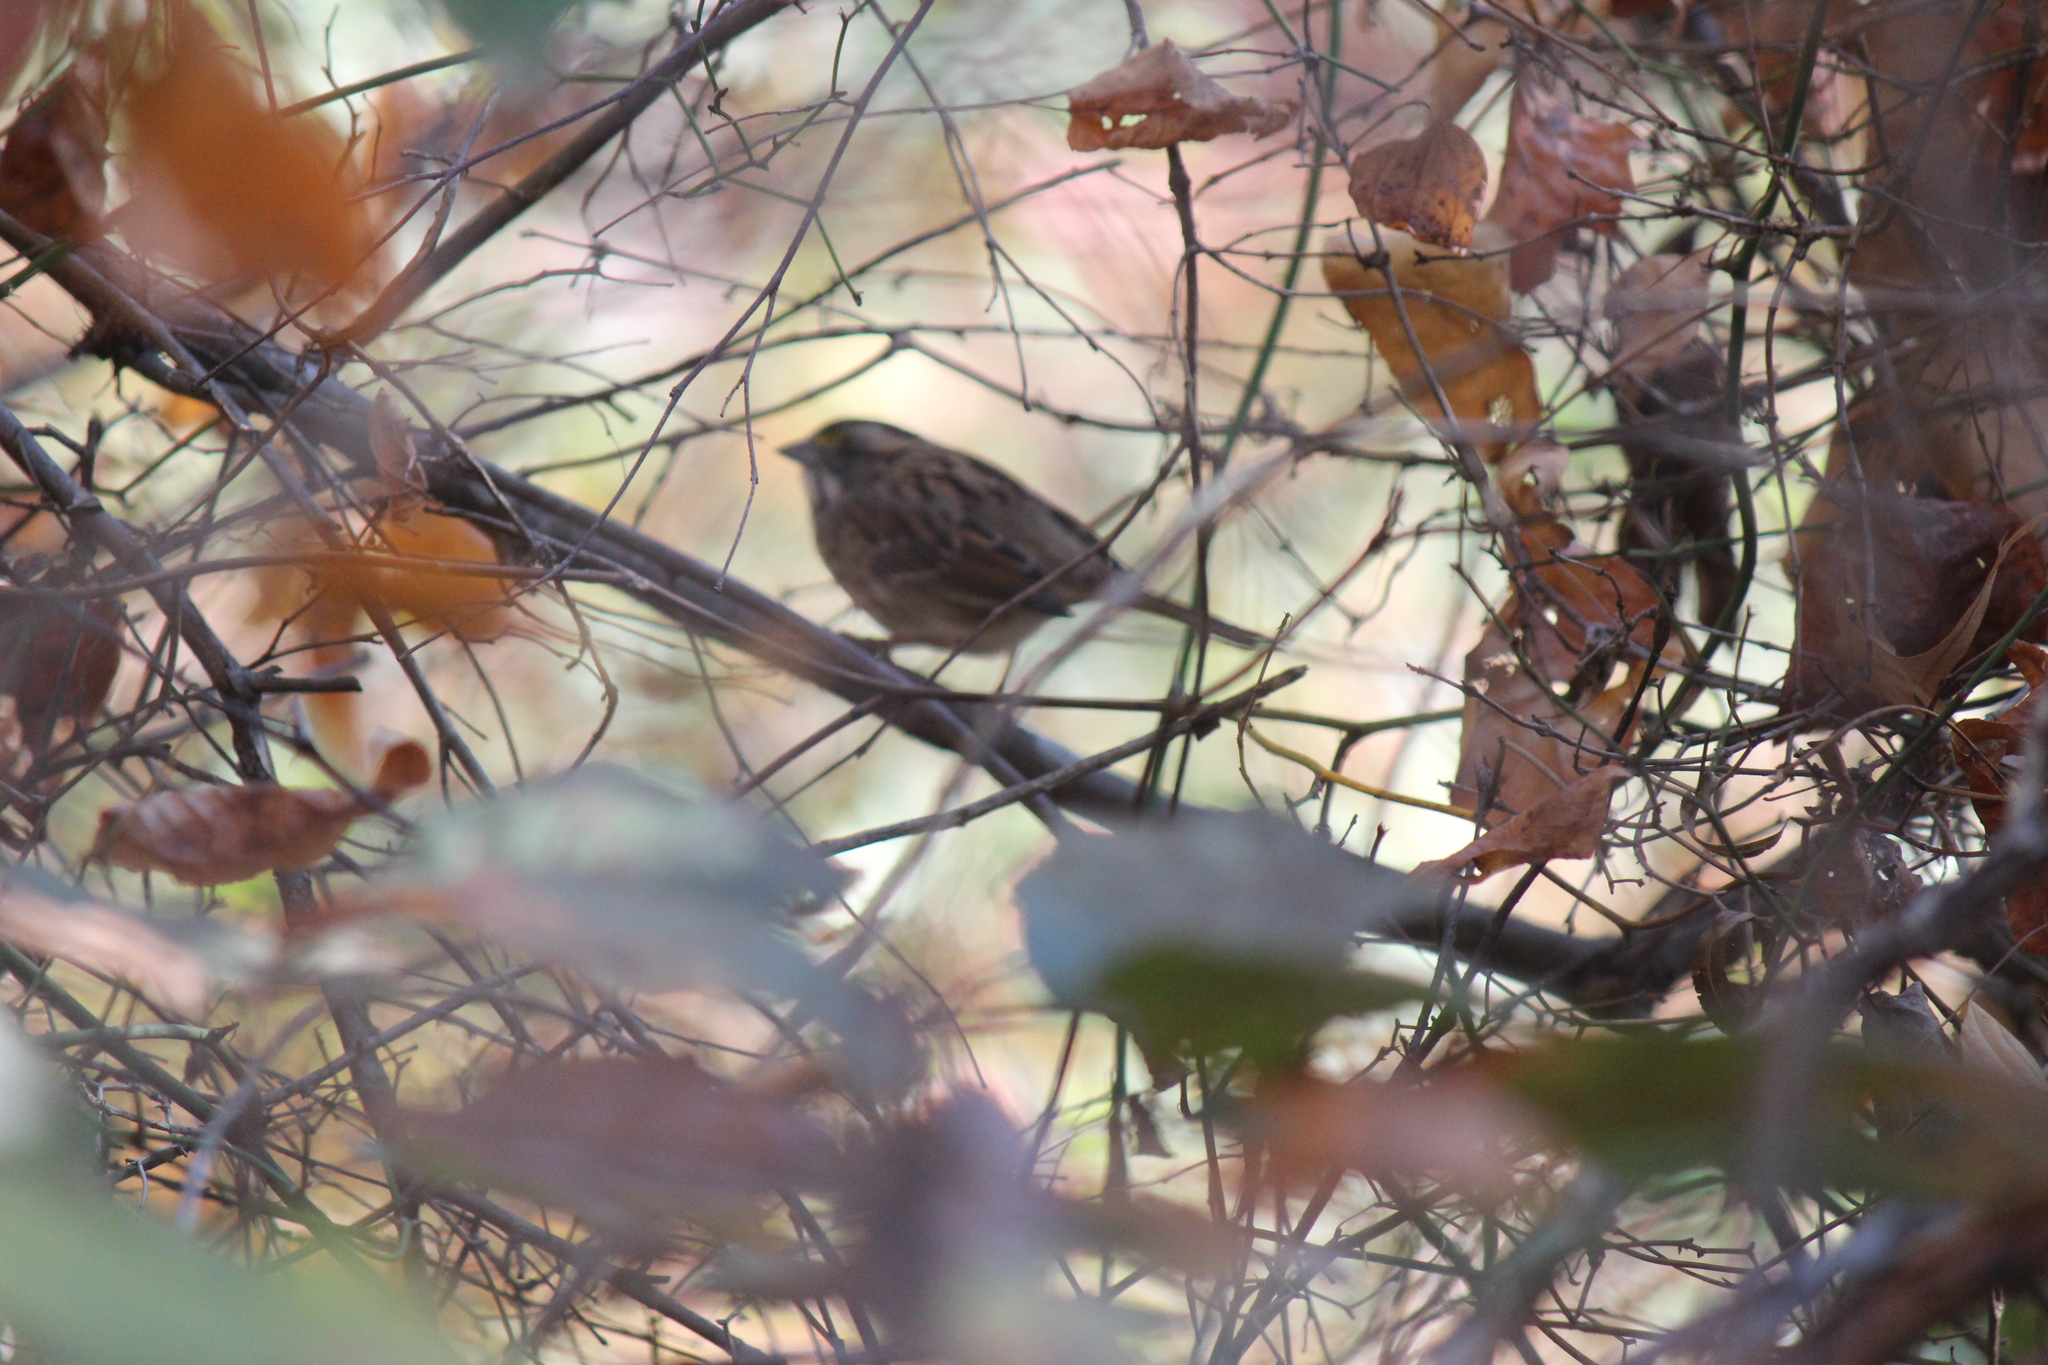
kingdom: Animalia
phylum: Chordata
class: Aves
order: Passeriformes
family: Passerellidae
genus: Zonotrichia
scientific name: Zonotrichia albicollis
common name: White-throated sparrow
